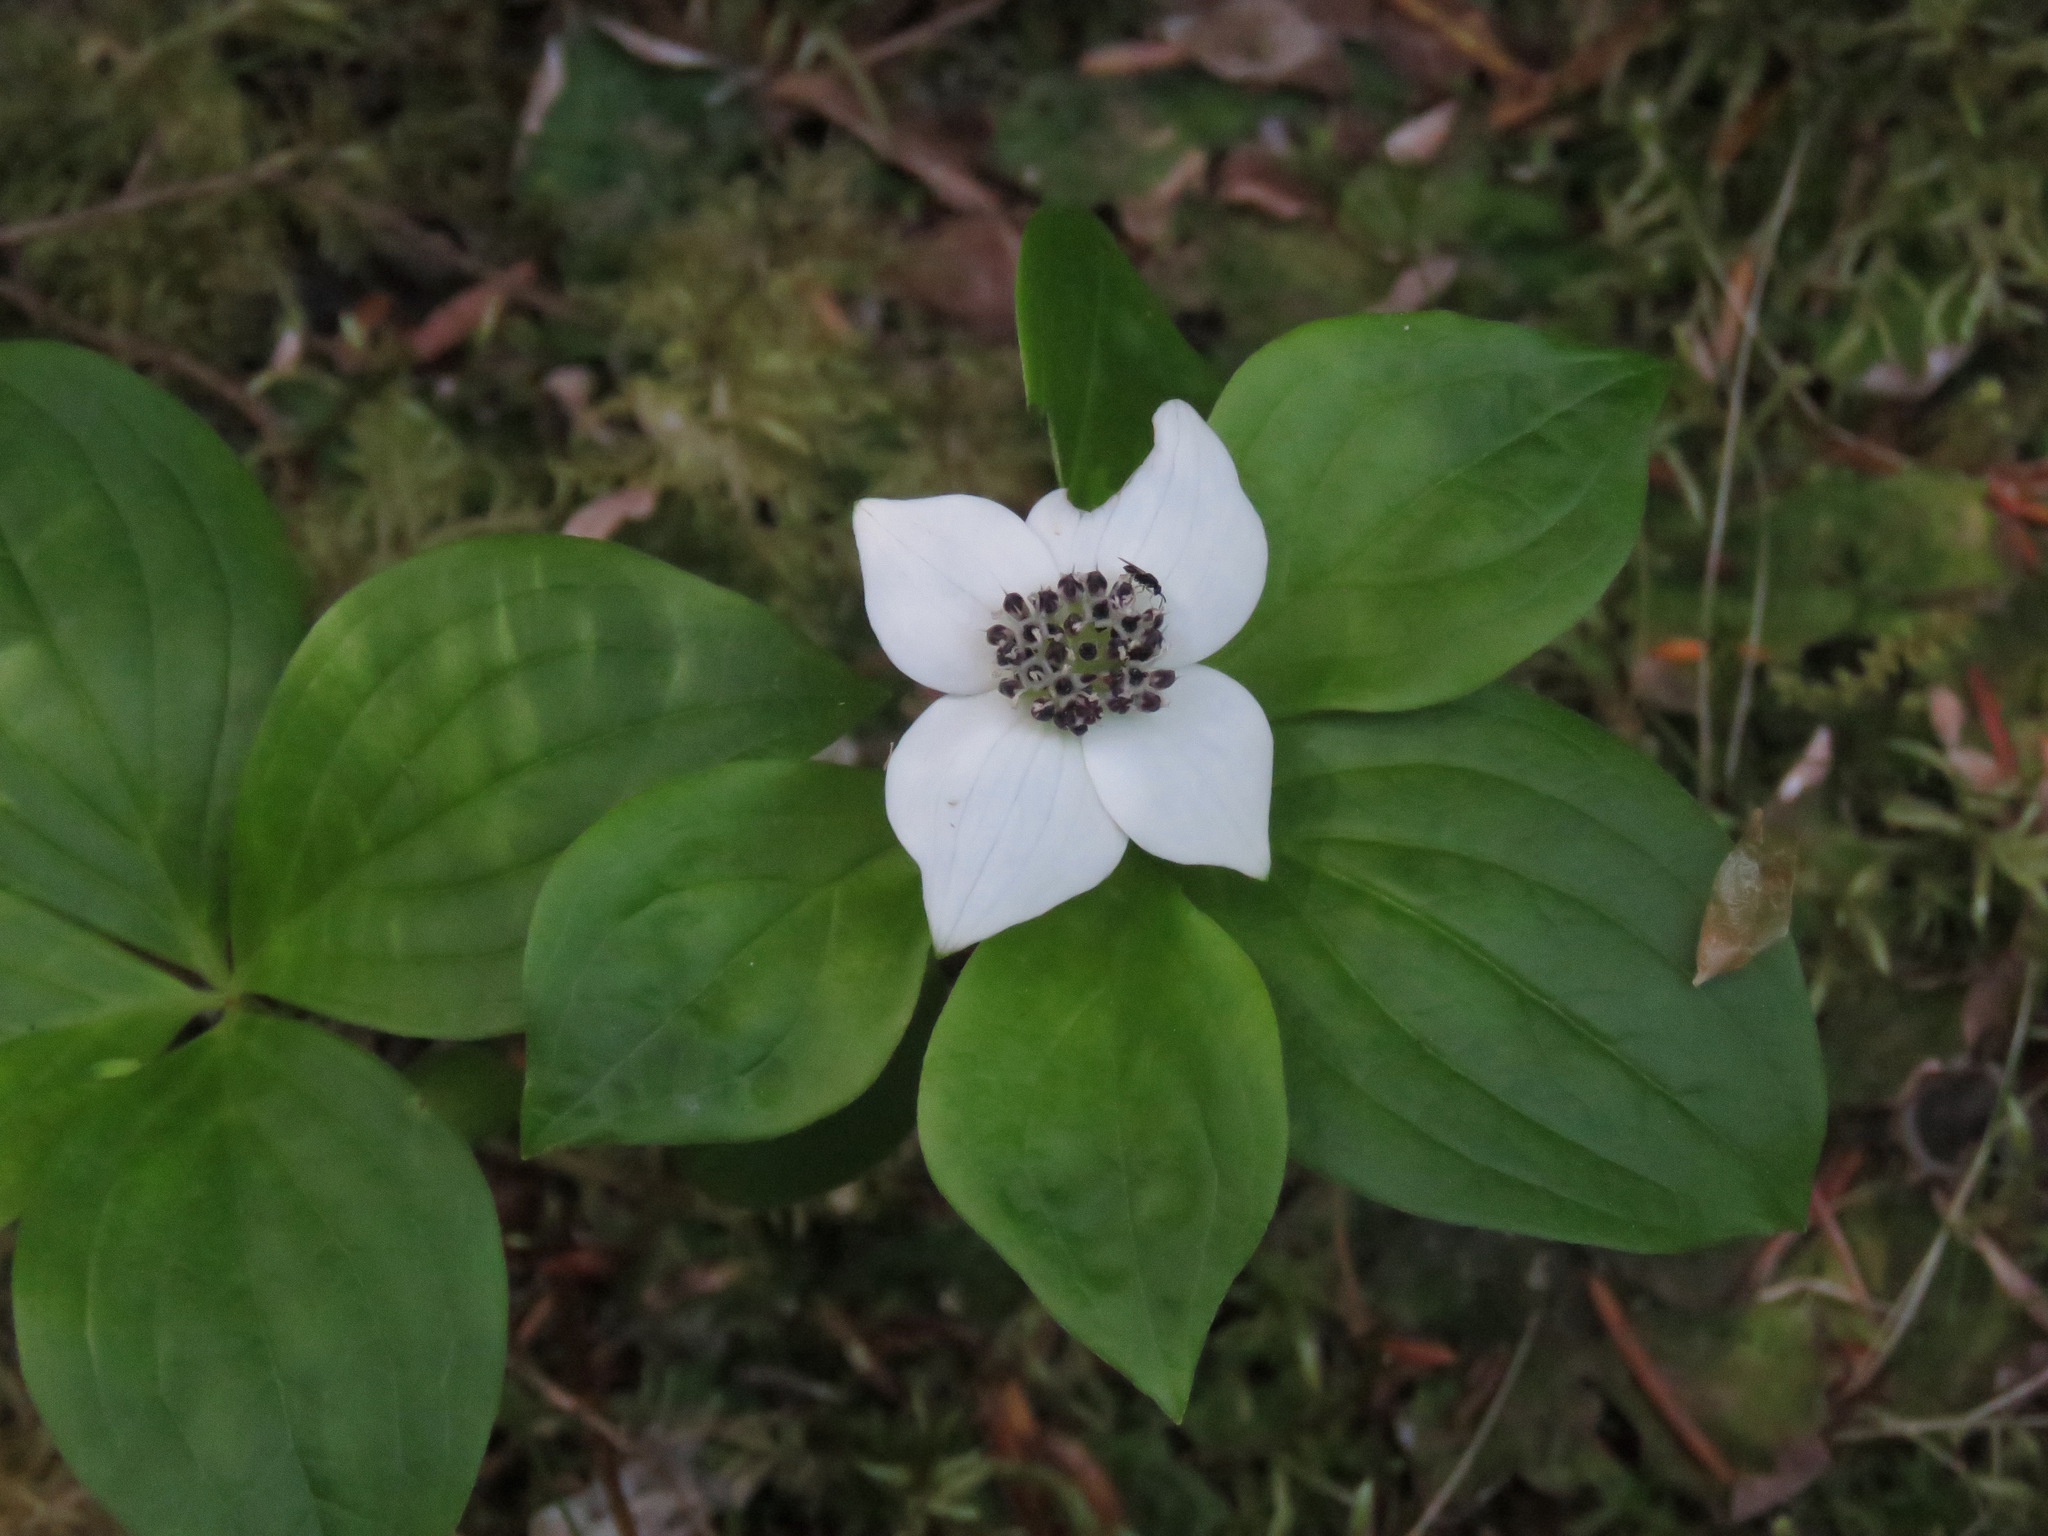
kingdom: Plantae
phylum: Tracheophyta
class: Magnoliopsida
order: Cornales
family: Cornaceae
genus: Cornus
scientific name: Cornus unalaschkensis
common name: Alaska bunchberry
